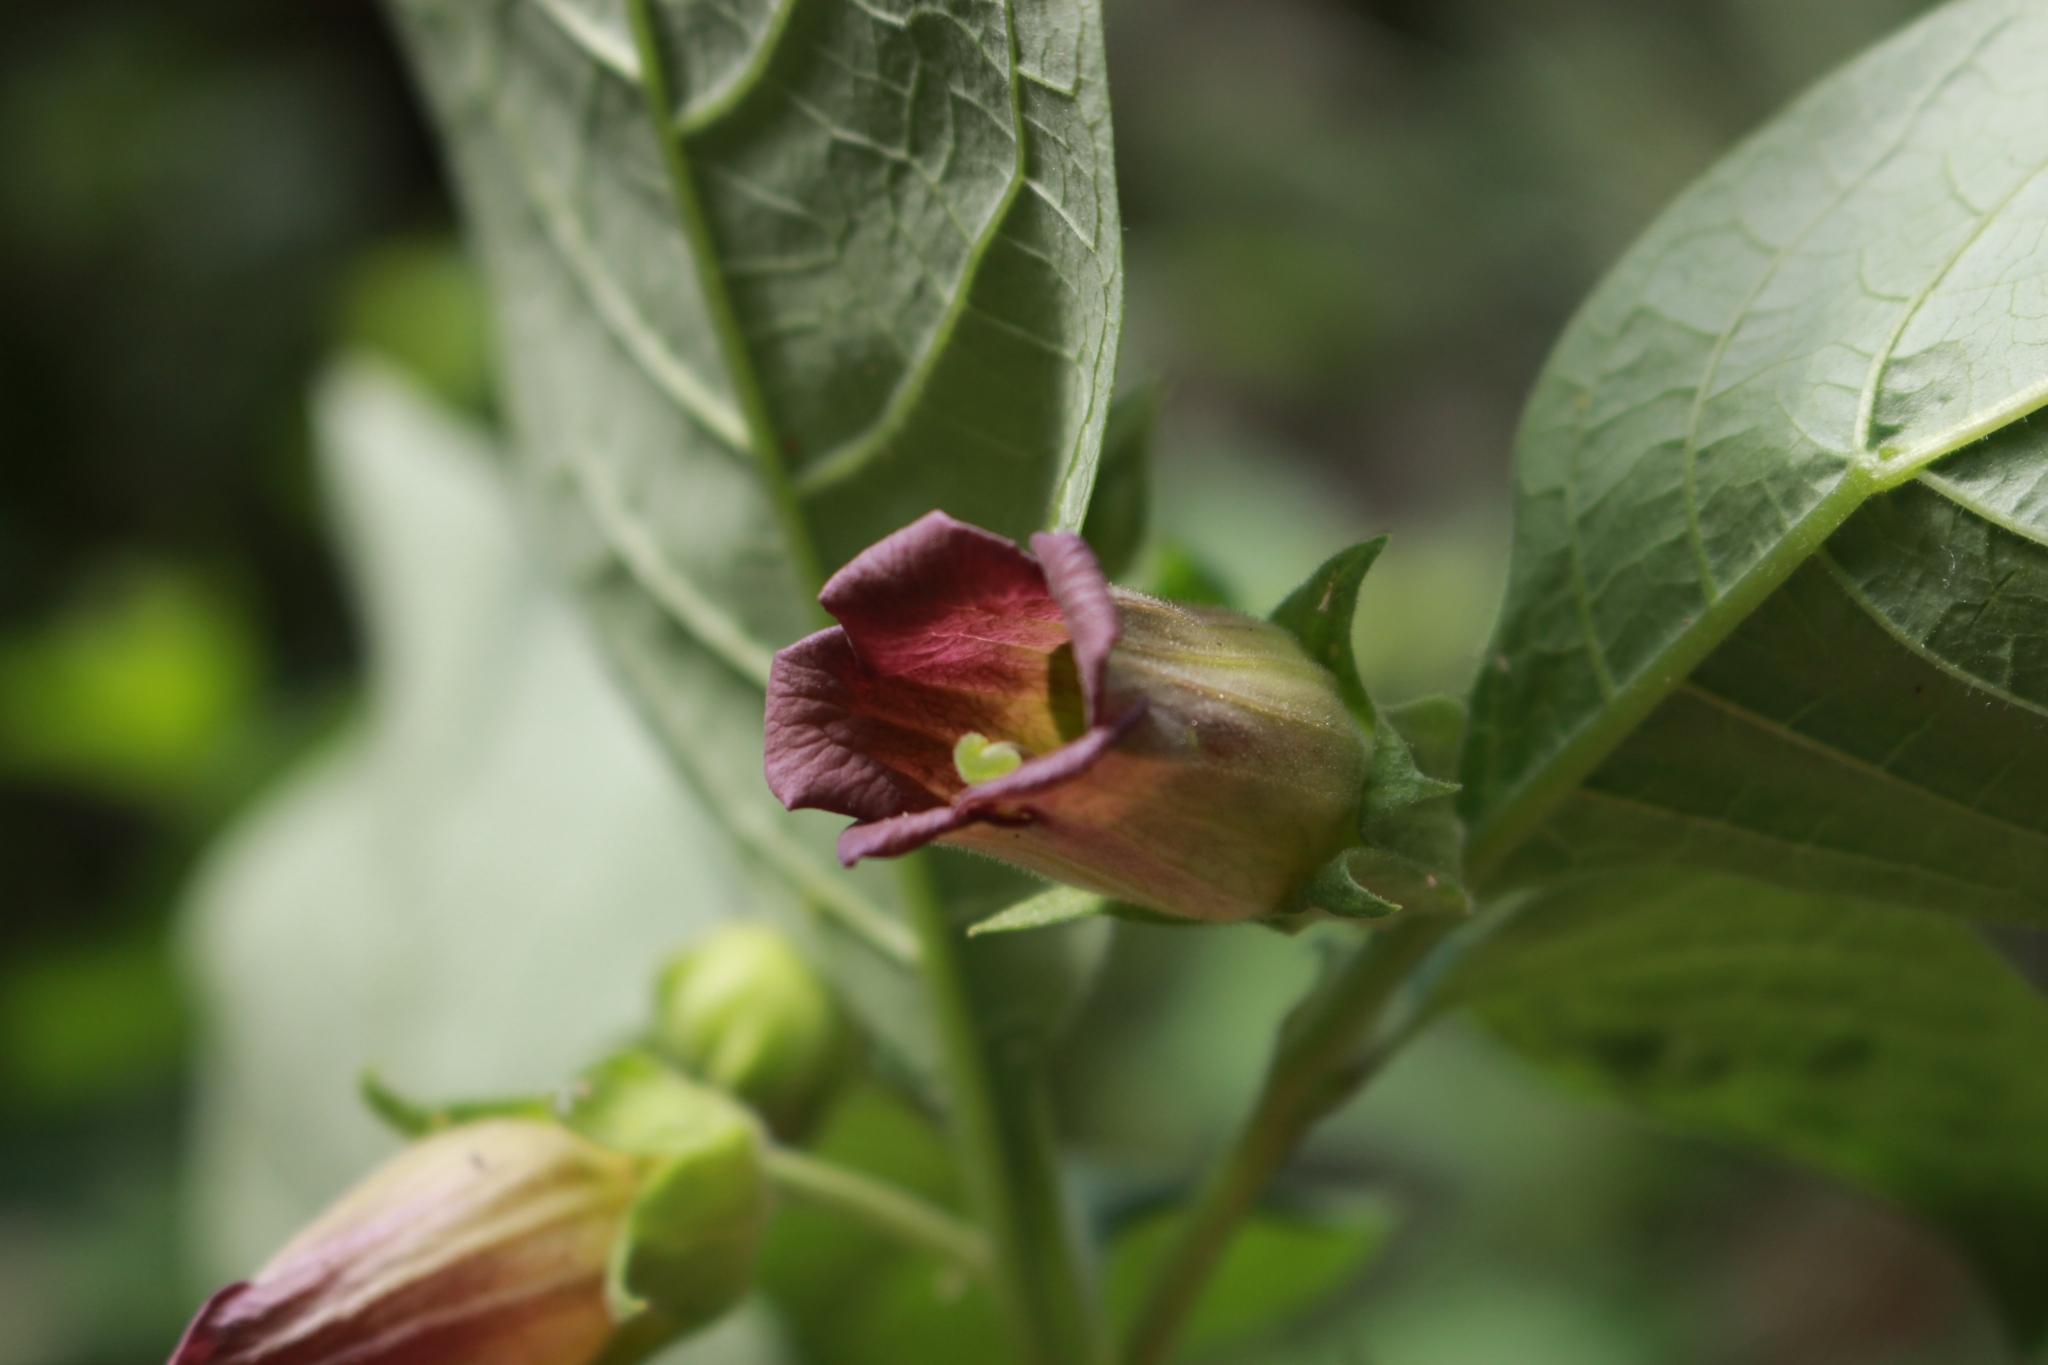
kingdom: Plantae
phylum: Tracheophyta
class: Magnoliopsida
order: Solanales
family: Solanaceae
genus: Atropa
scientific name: Atropa belladonna
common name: Deadly nightshade
